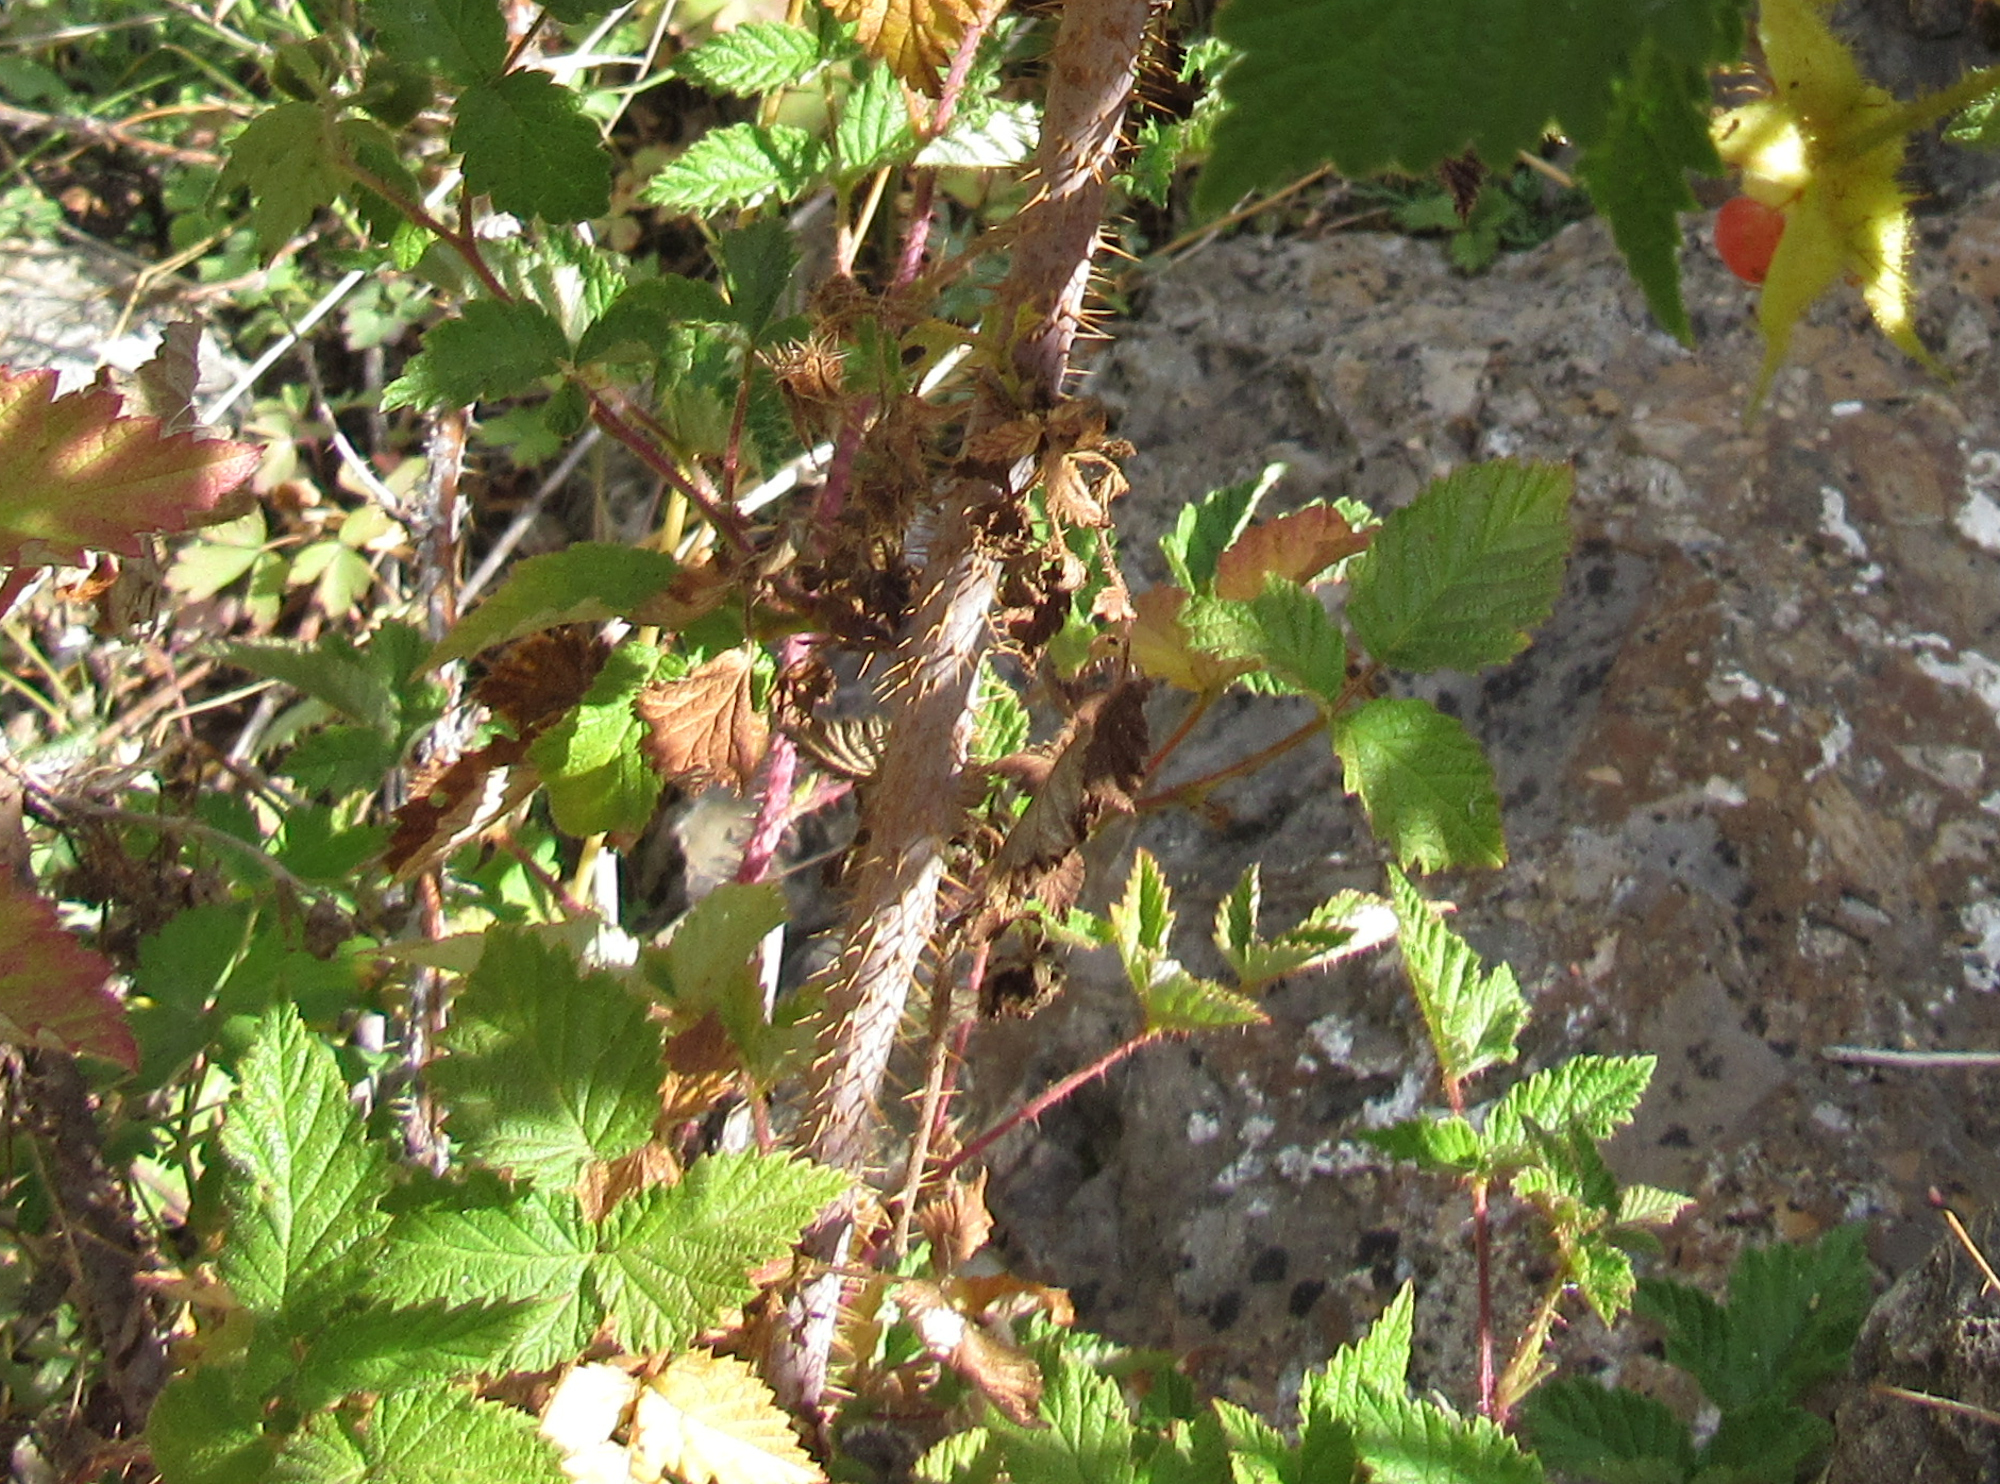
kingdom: Plantae
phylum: Tracheophyta
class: Magnoliopsida
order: Rosales
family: Rosaceae
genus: Rubus
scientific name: Rubus idaeus
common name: Raspberry
